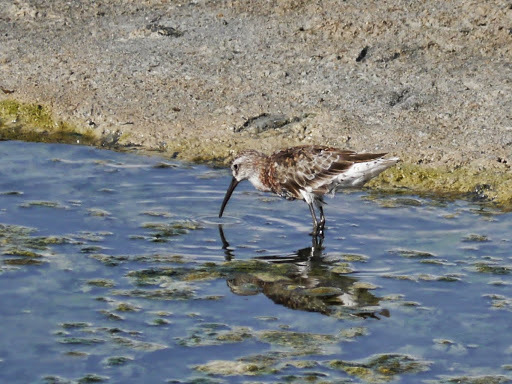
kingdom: Animalia
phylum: Chordata
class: Aves
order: Charadriiformes
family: Scolopacidae
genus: Calidris
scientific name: Calidris ferruginea
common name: Curlew sandpiper
